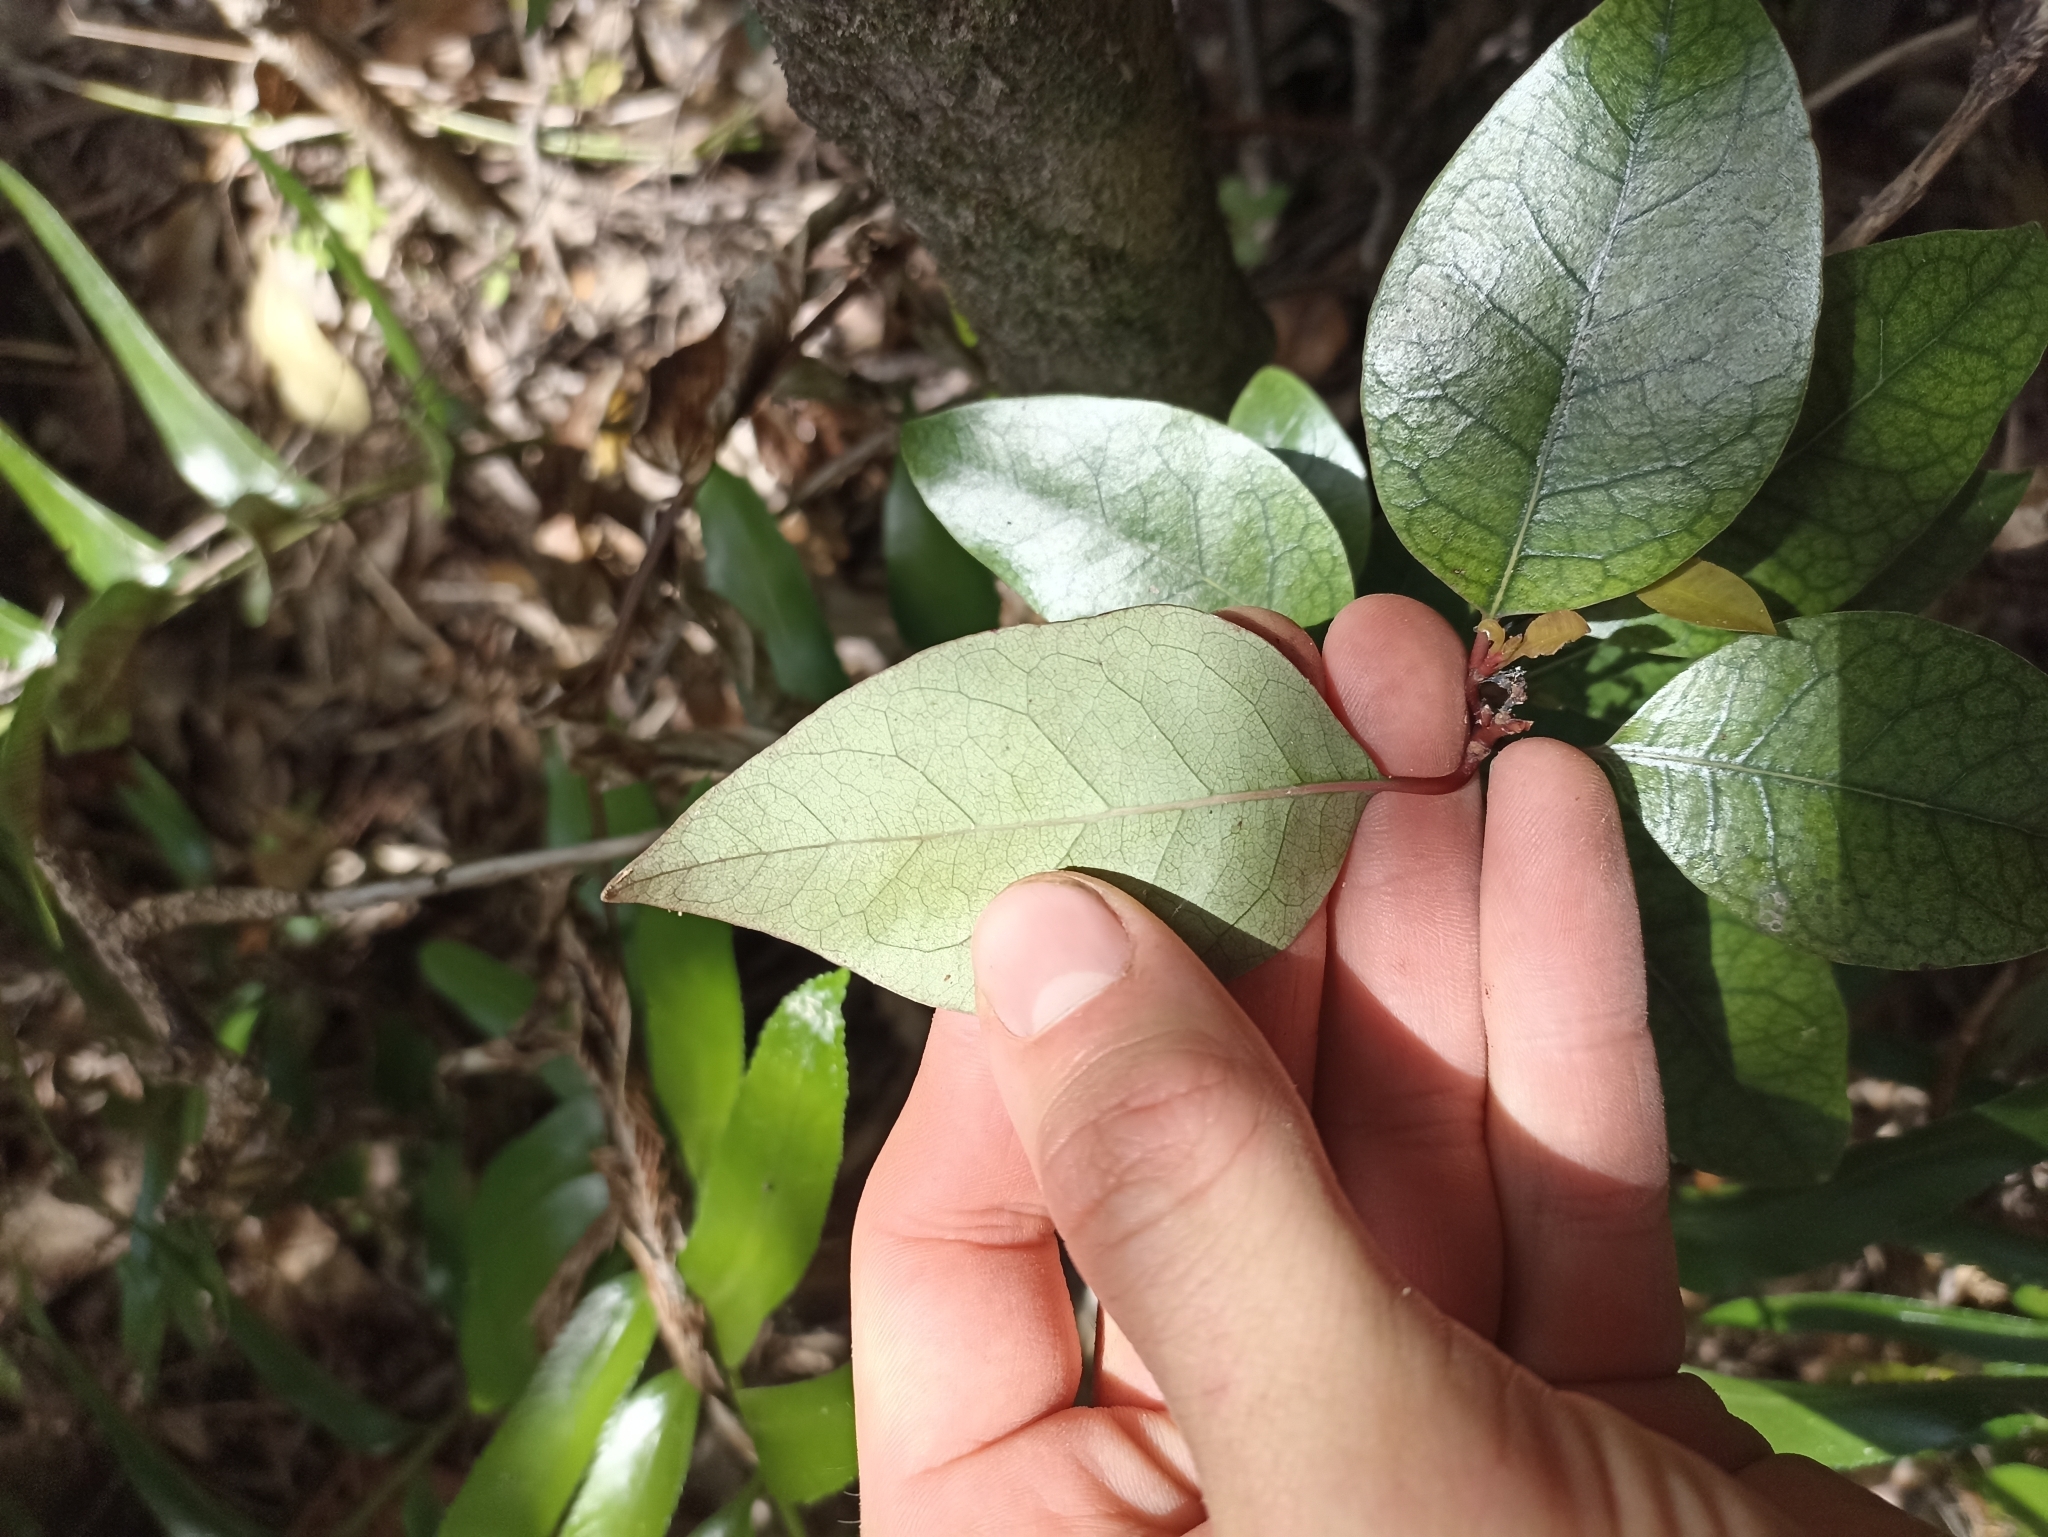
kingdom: Plantae
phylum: Tracheophyta
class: Magnoliopsida
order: Laurales
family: Lauraceae
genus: Litsea
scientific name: Litsea calicaris
